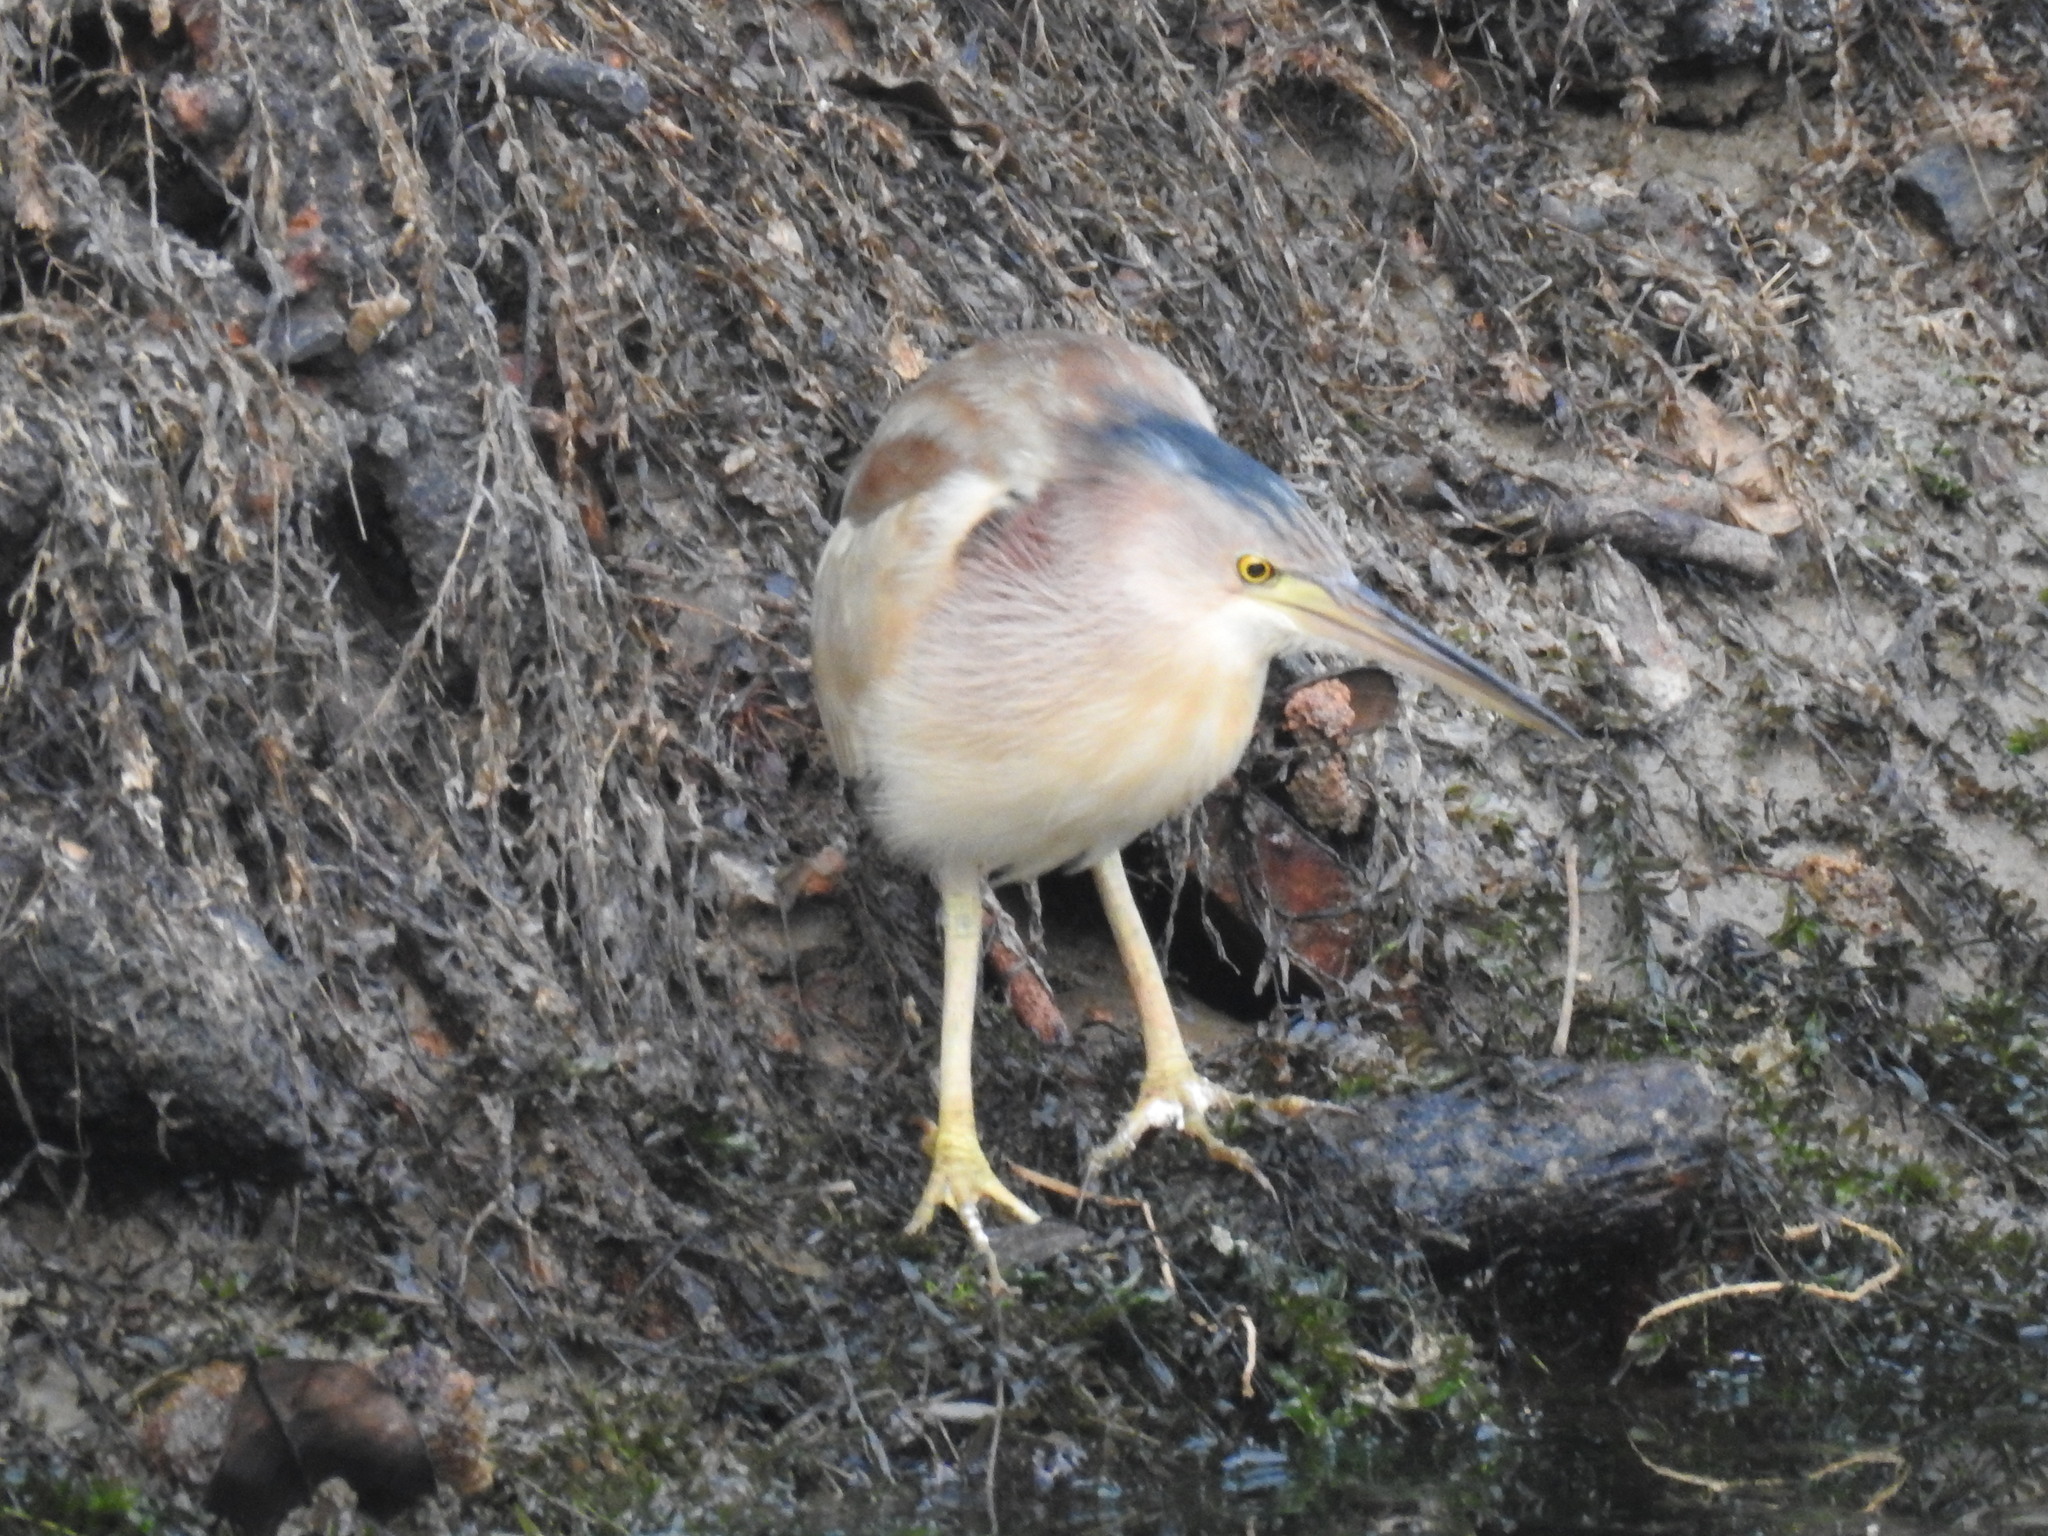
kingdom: Animalia
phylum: Chordata
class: Aves
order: Pelecaniformes
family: Ardeidae
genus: Ixobrychus
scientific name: Ixobrychus sinensis
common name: Yellow bittern
